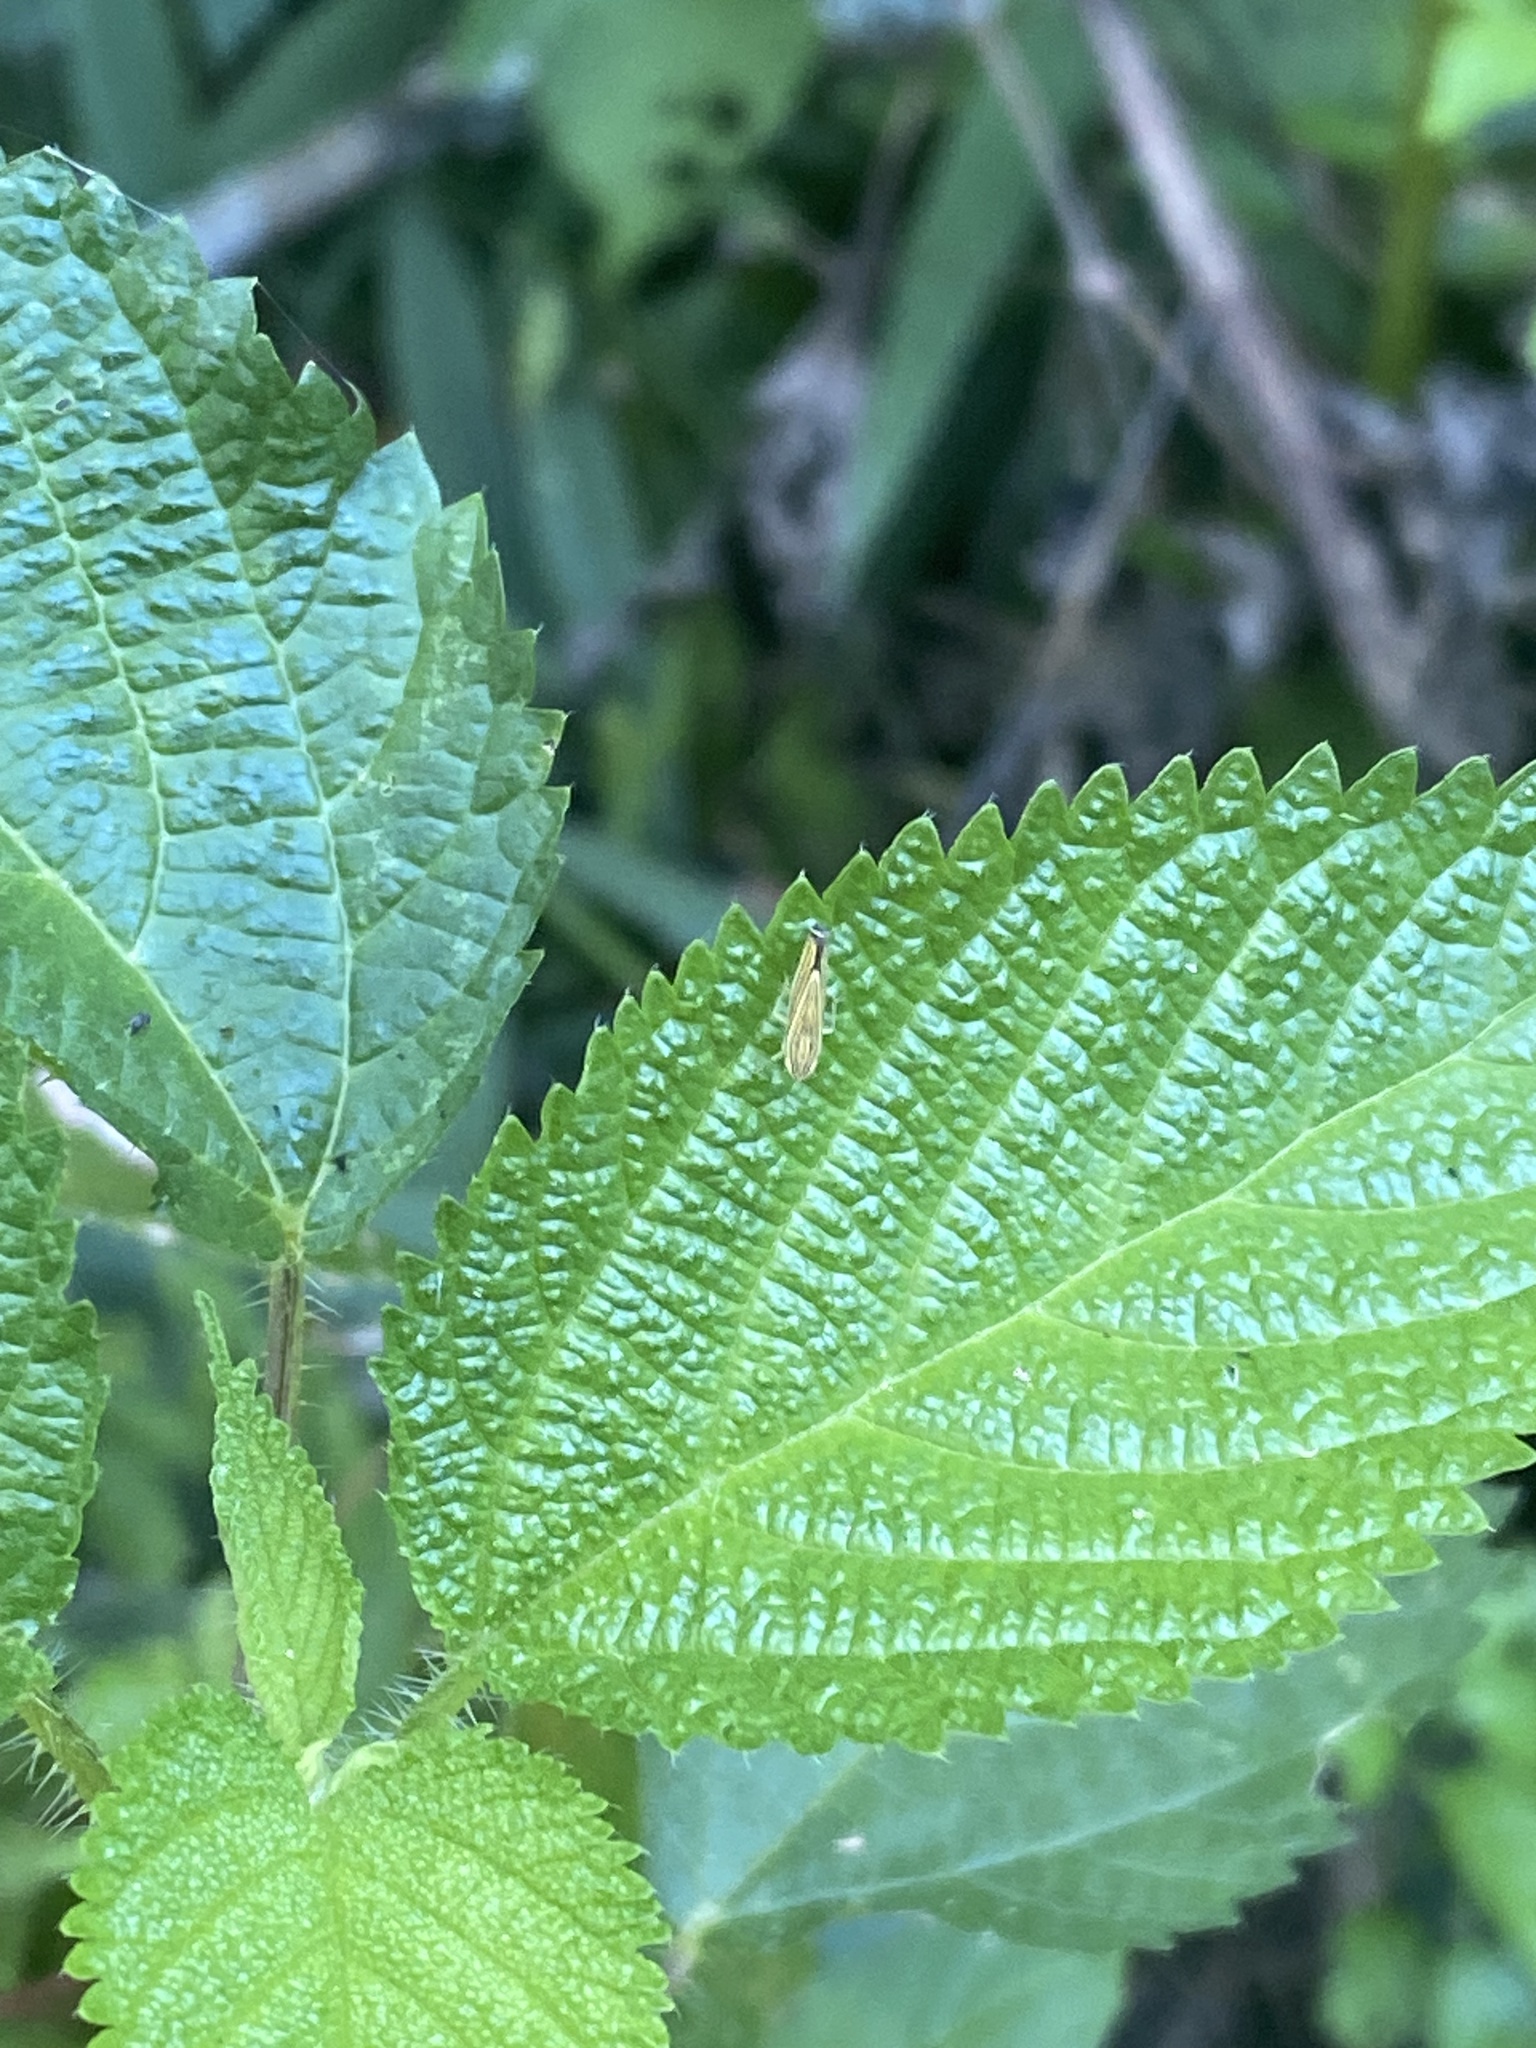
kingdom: Animalia
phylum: Arthropoda
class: Insecta
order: Hemiptera
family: Cicadellidae
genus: Sibovia
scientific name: Sibovia occatoria
